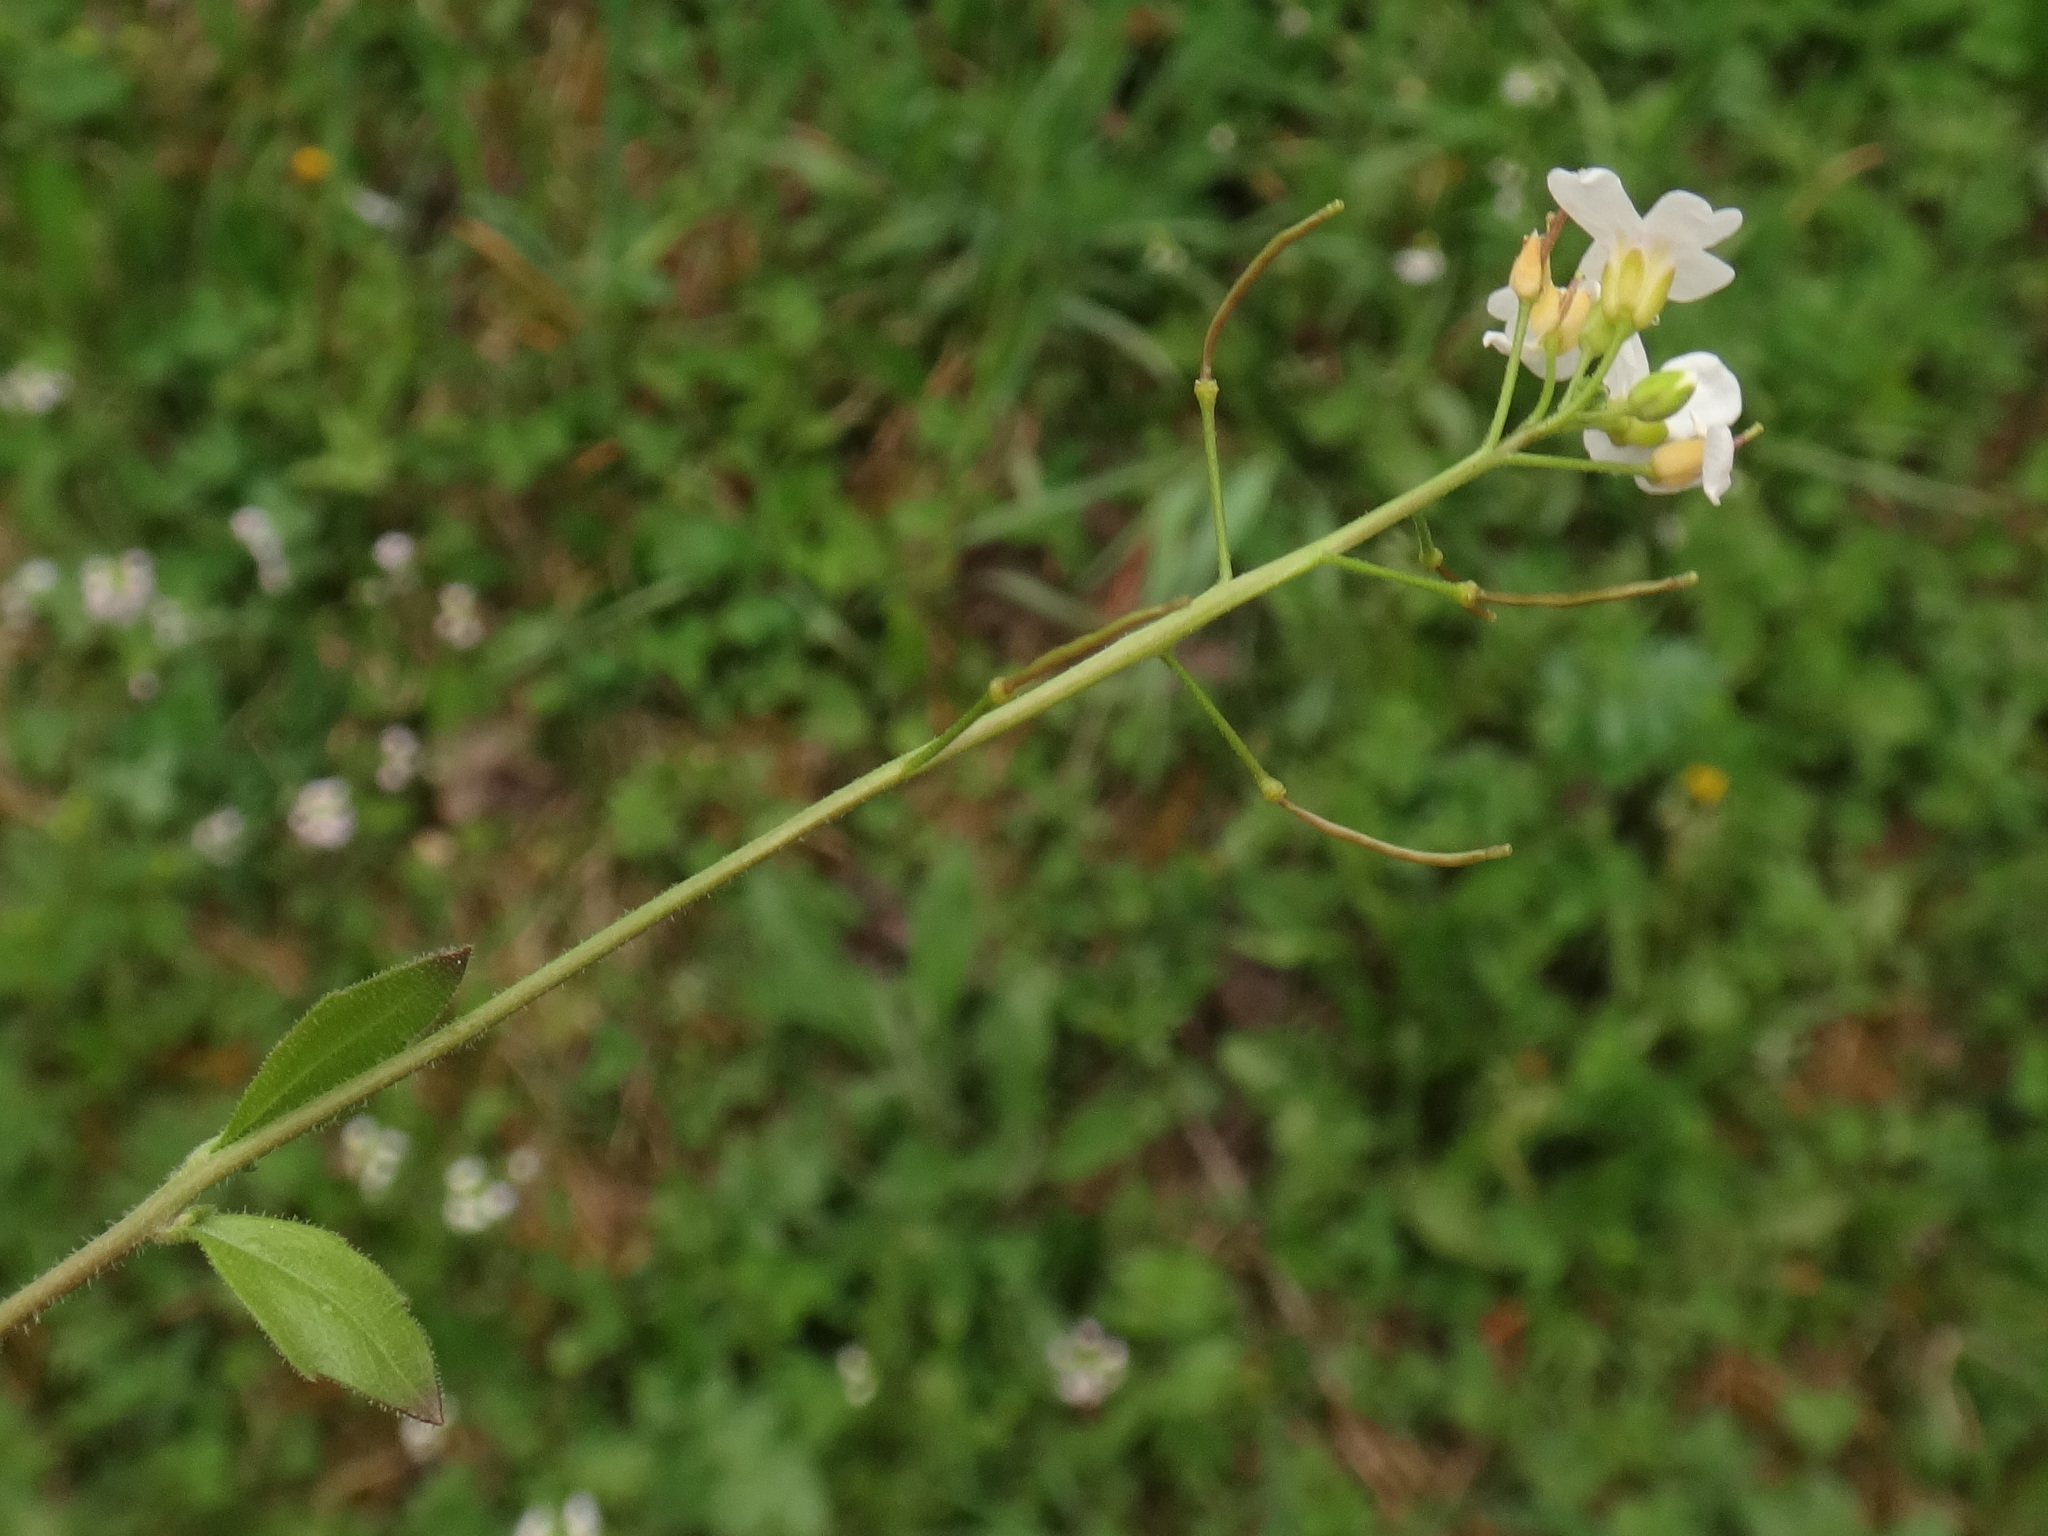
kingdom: Plantae
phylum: Tracheophyta
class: Magnoliopsida
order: Brassicales
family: Brassicaceae
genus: Arabidopsis
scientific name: Arabidopsis halleri
